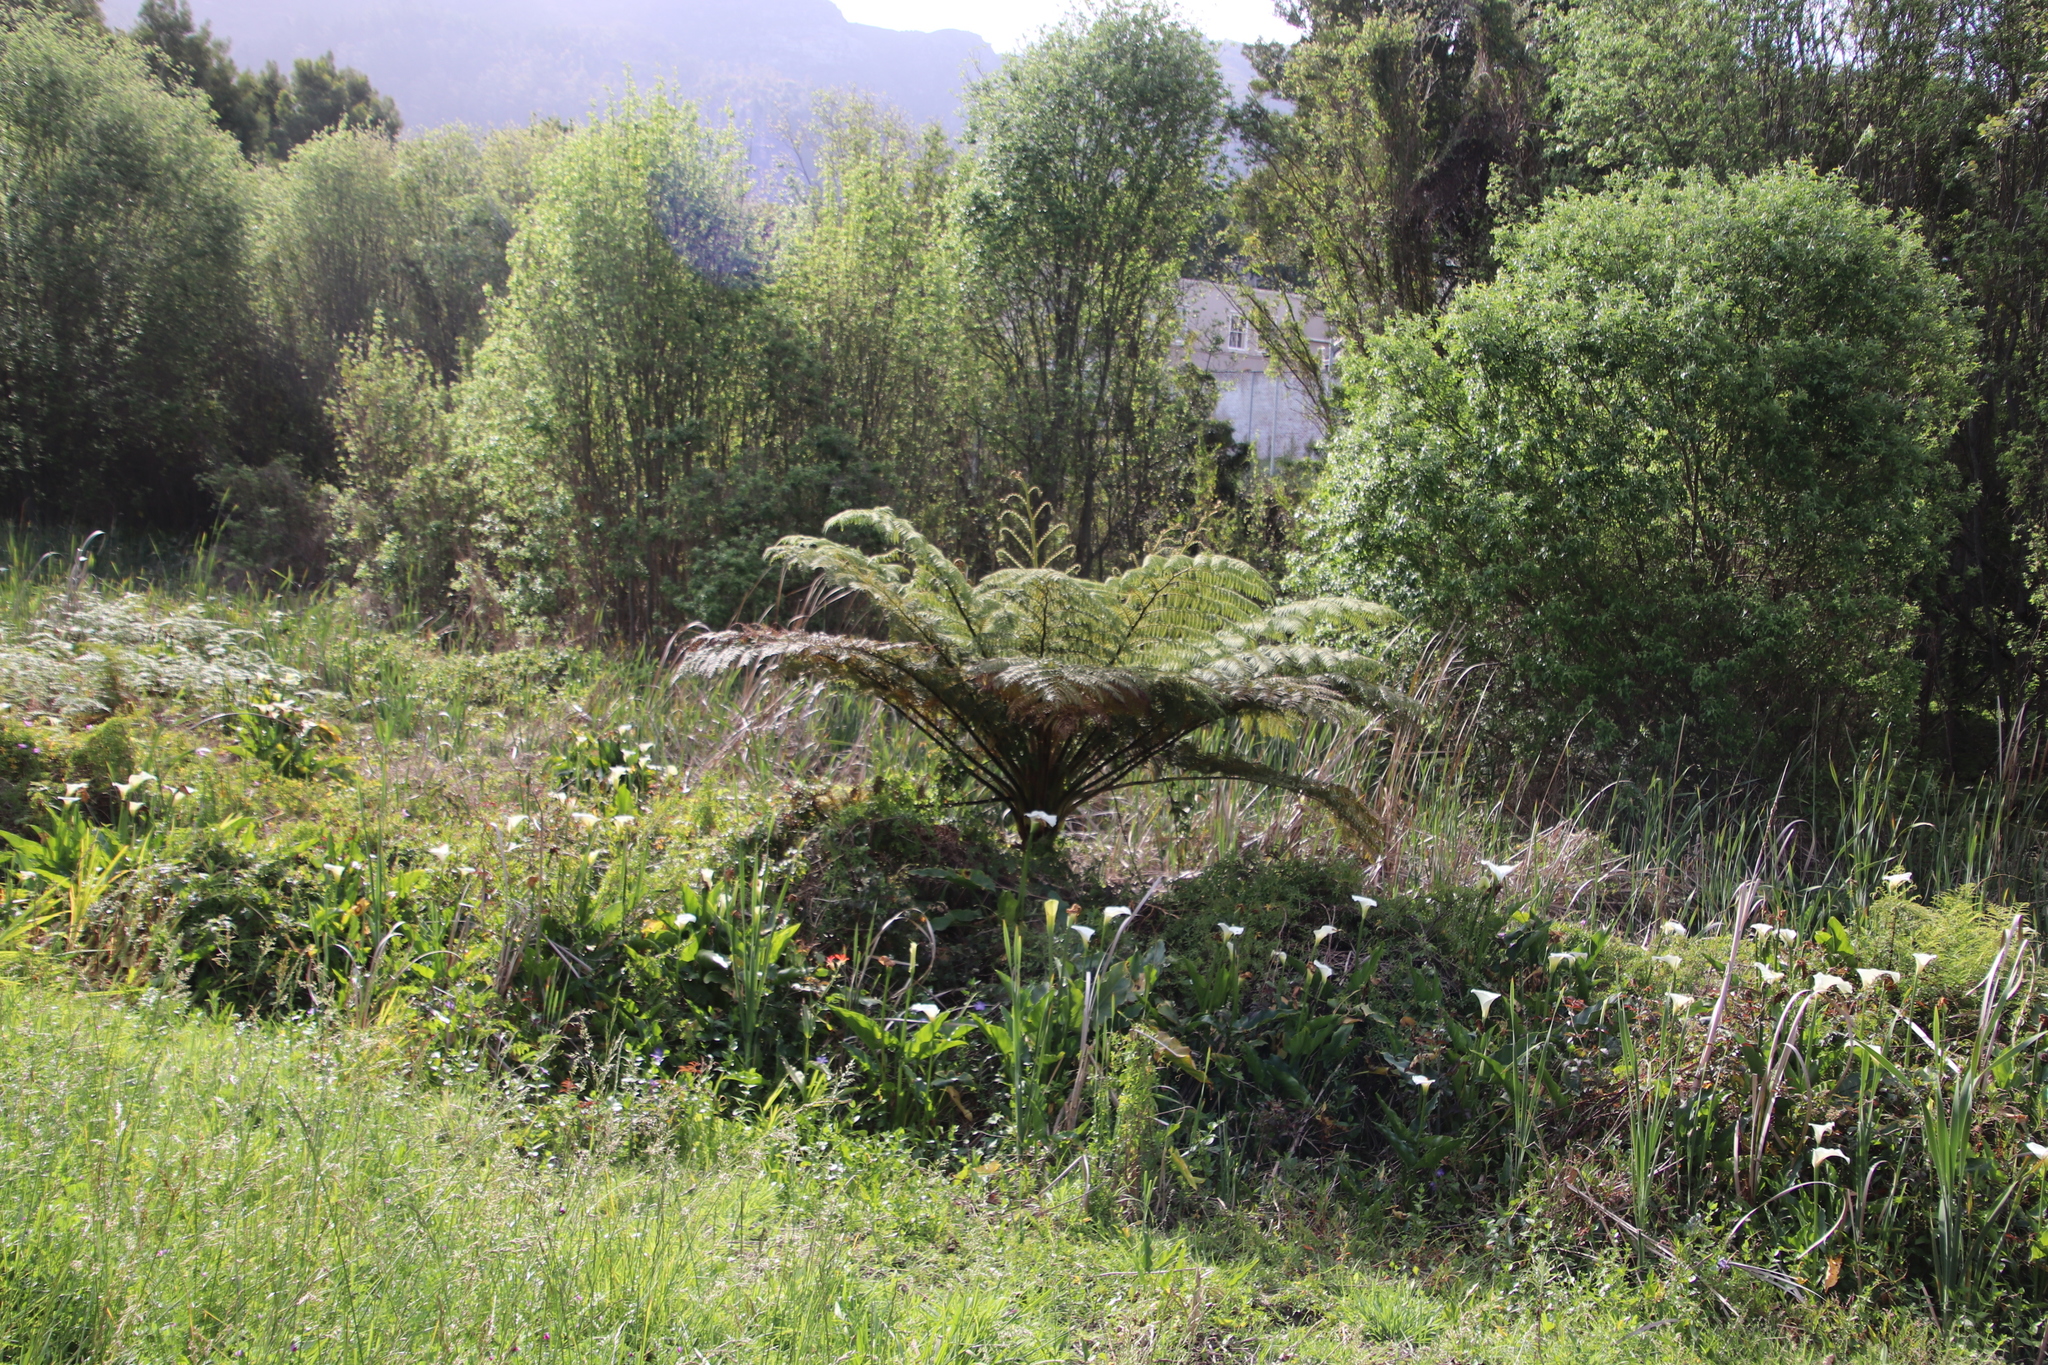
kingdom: Plantae
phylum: Tracheophyta
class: Polypodiopsida
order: Cyatheales
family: Cyatheaceae
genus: Sphaeropteris
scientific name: Sphaeropteris cooperi
